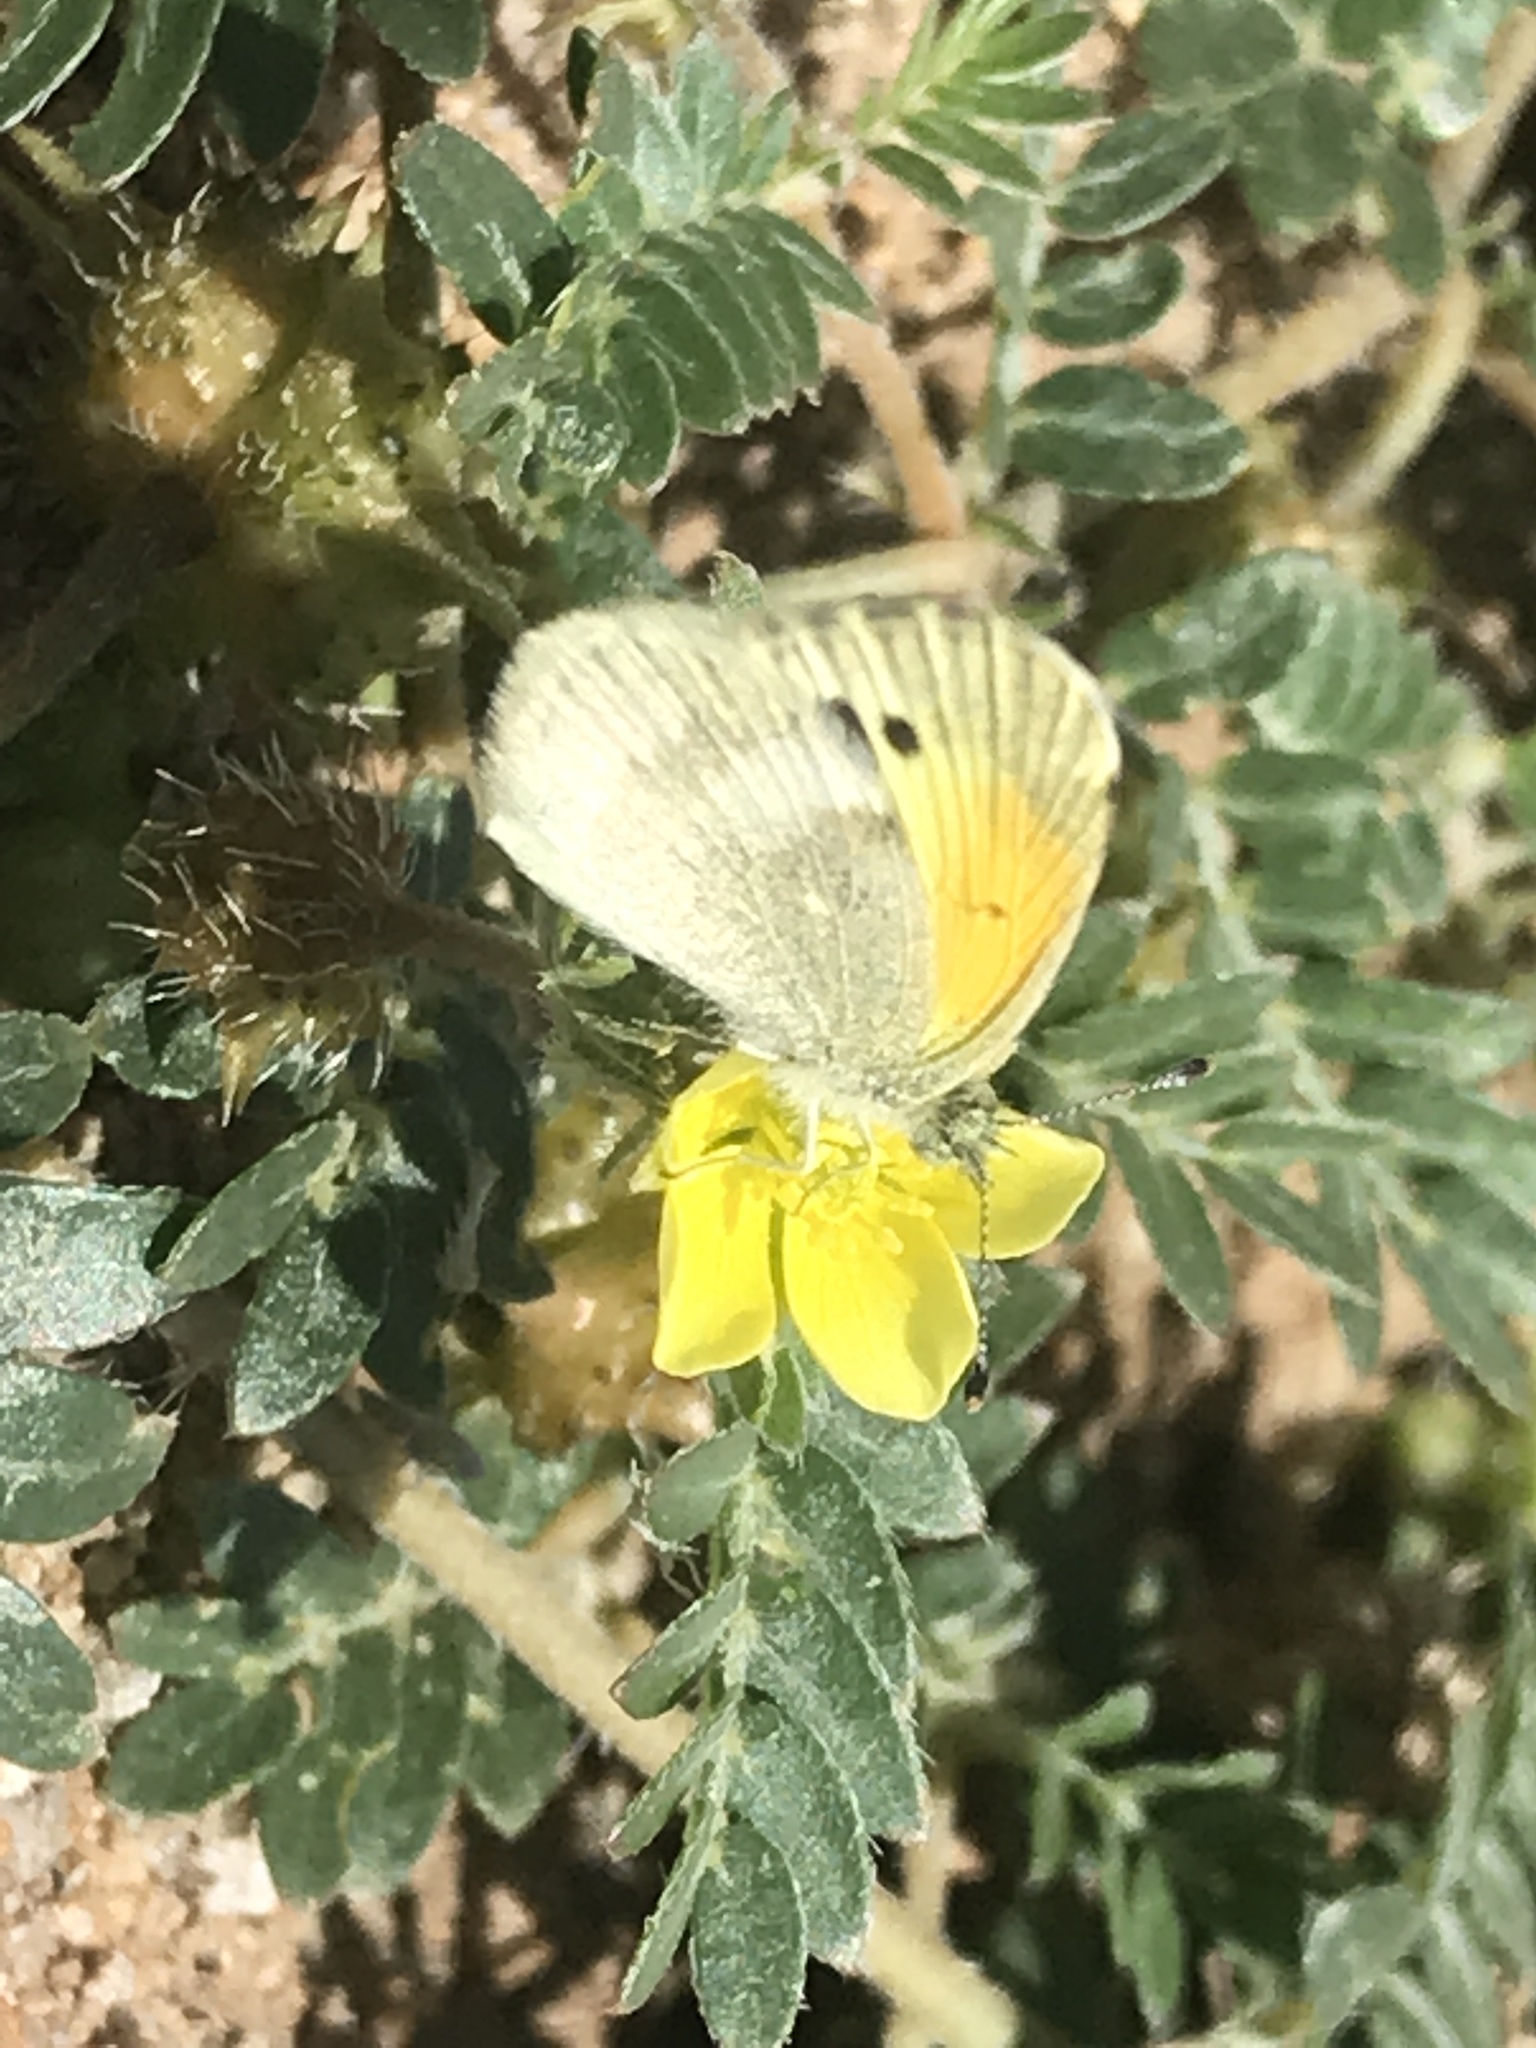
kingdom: Animalia
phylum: Arthropoda
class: Insecta
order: Lepidoptera
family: Pieridae
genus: Nathalis
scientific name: Nathalis iole
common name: Dainty sulphur
